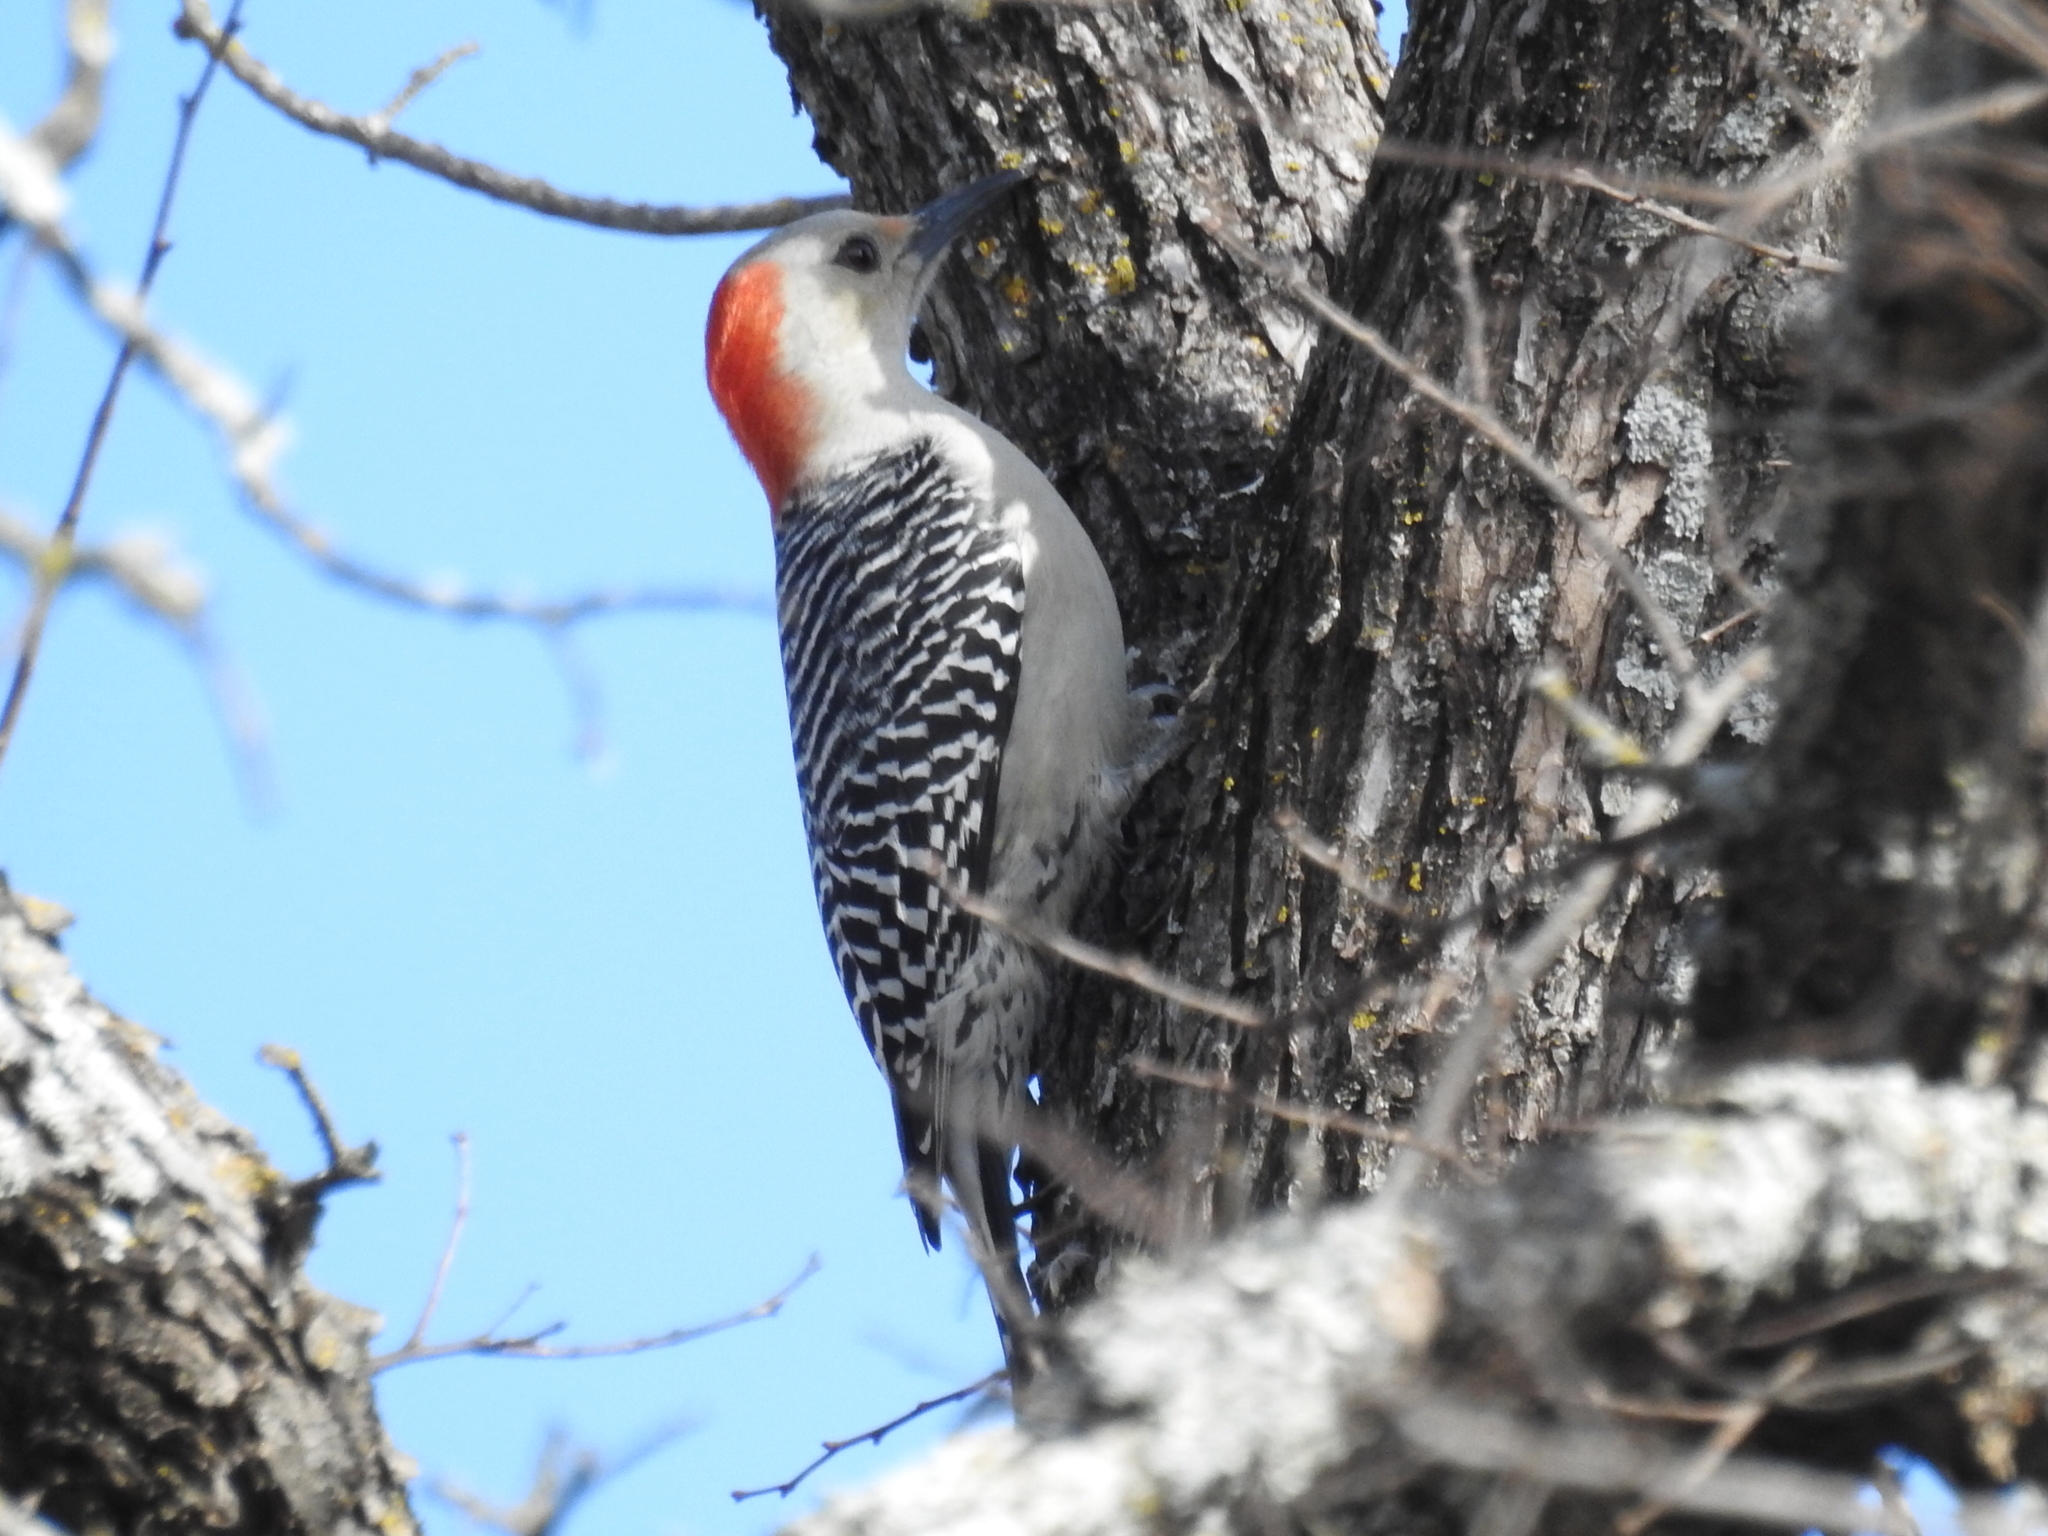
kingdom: Animalia
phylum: Chordata
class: Aves
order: Piciformes
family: Picidae
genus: Melanerpes
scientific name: Melanerpes carolinus
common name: Red-bellied woodpecker
